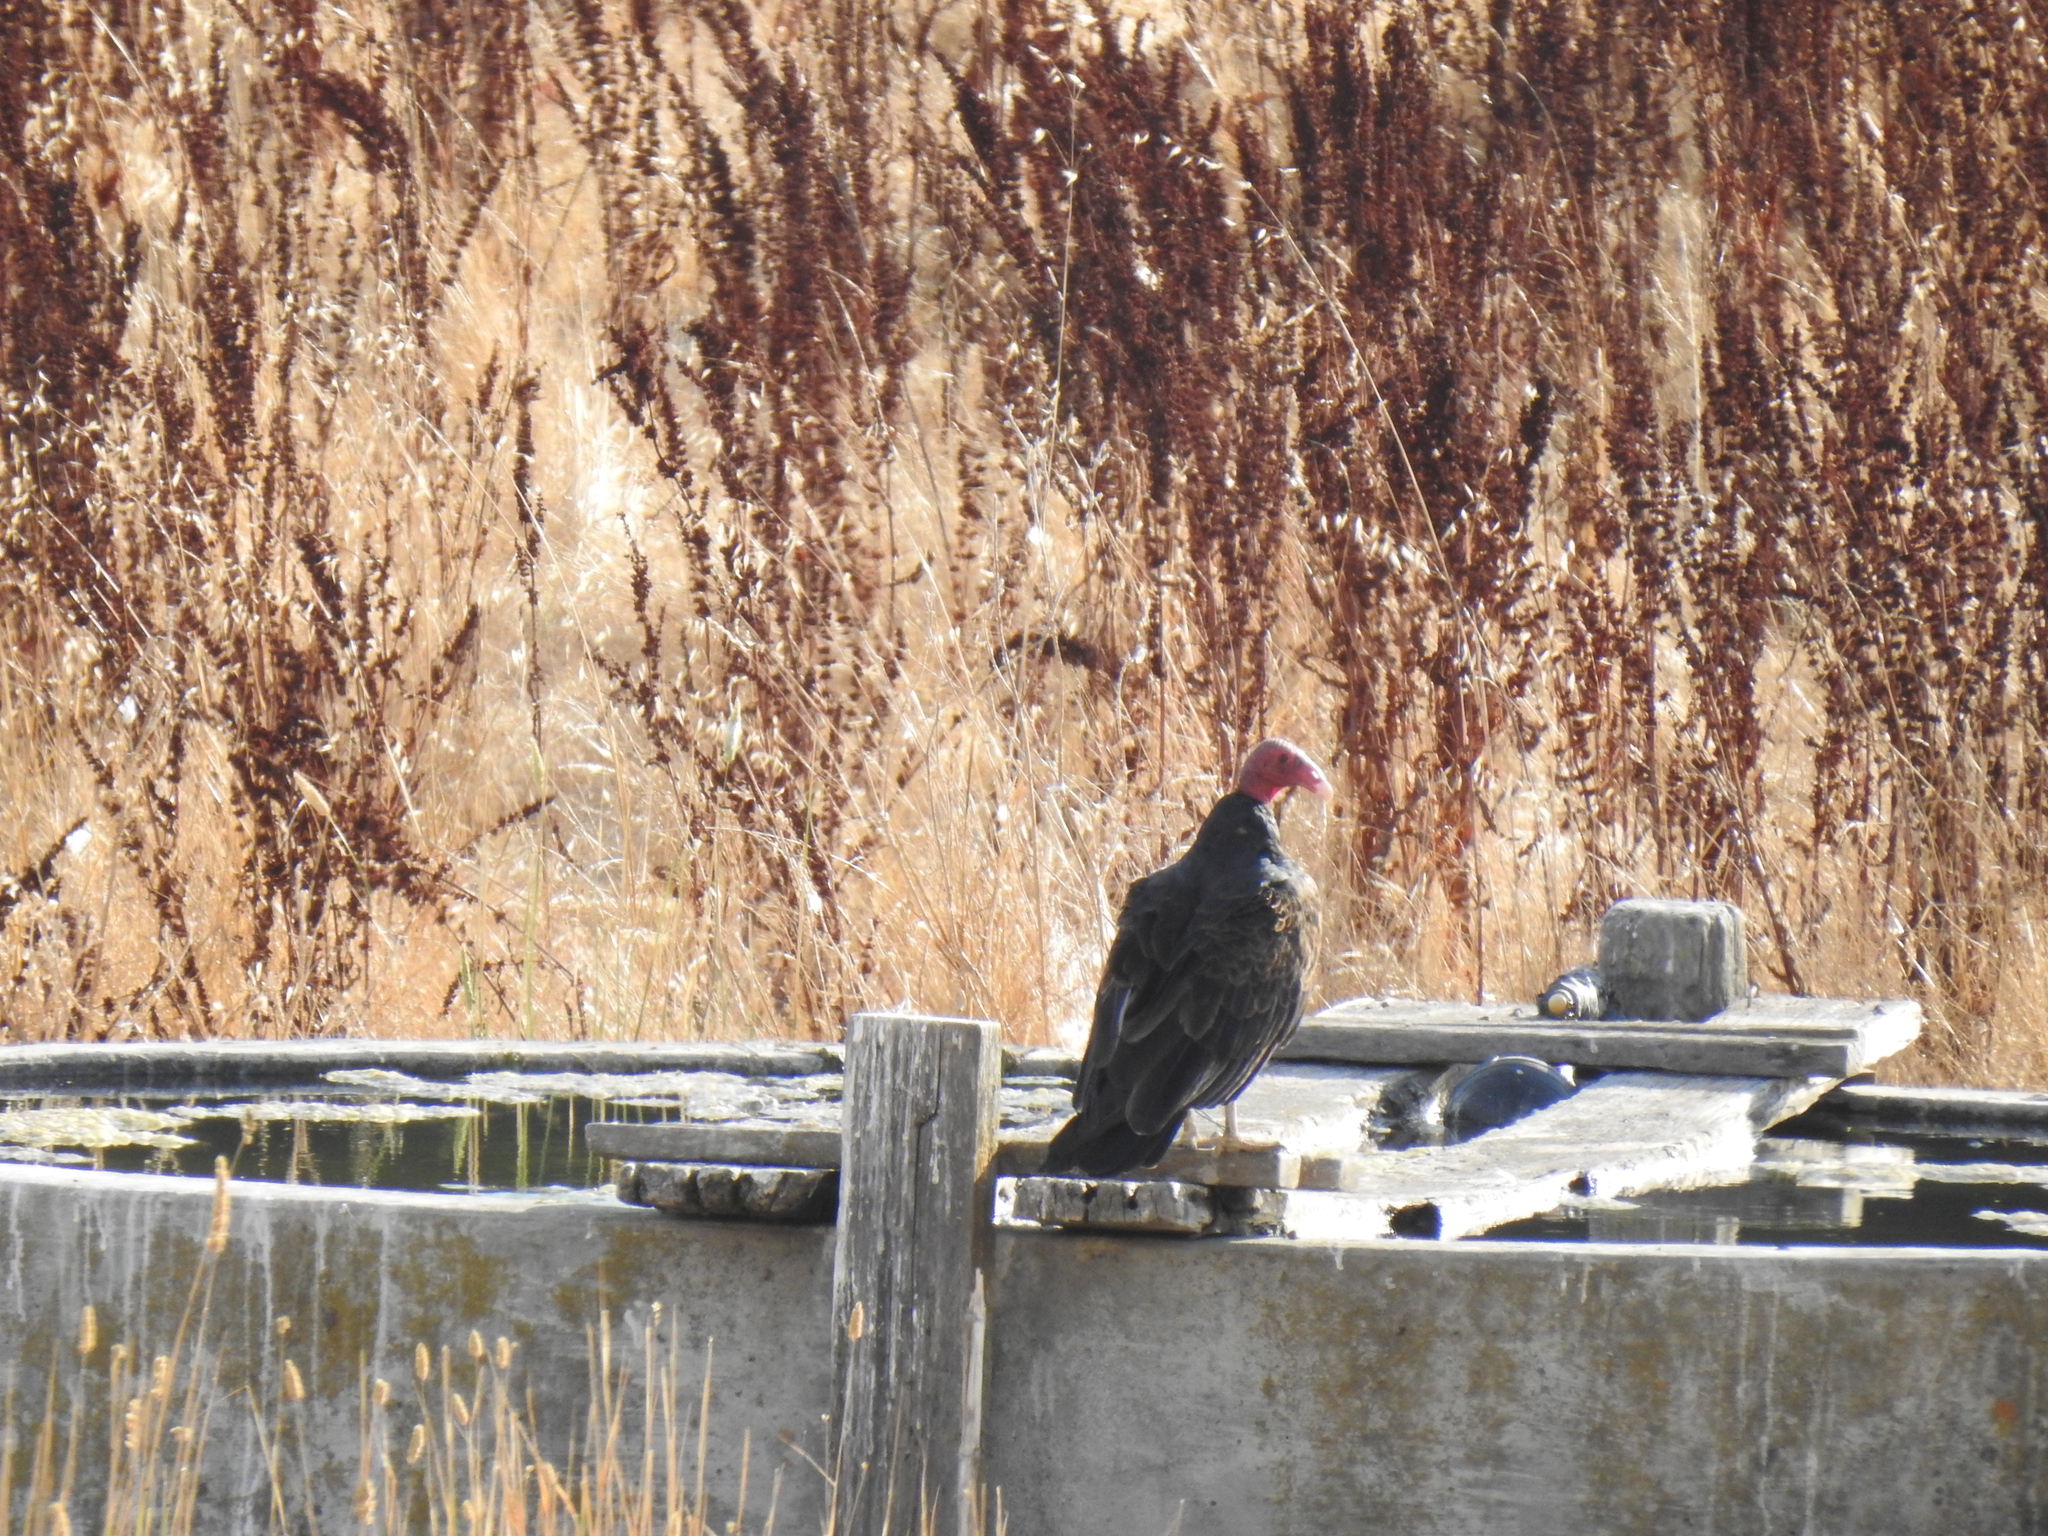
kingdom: Animalia
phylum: Chordata
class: Aves
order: Accipitriformes
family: Cathartidae
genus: Cathartes
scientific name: Cathartes aura
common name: Turkey vulture
